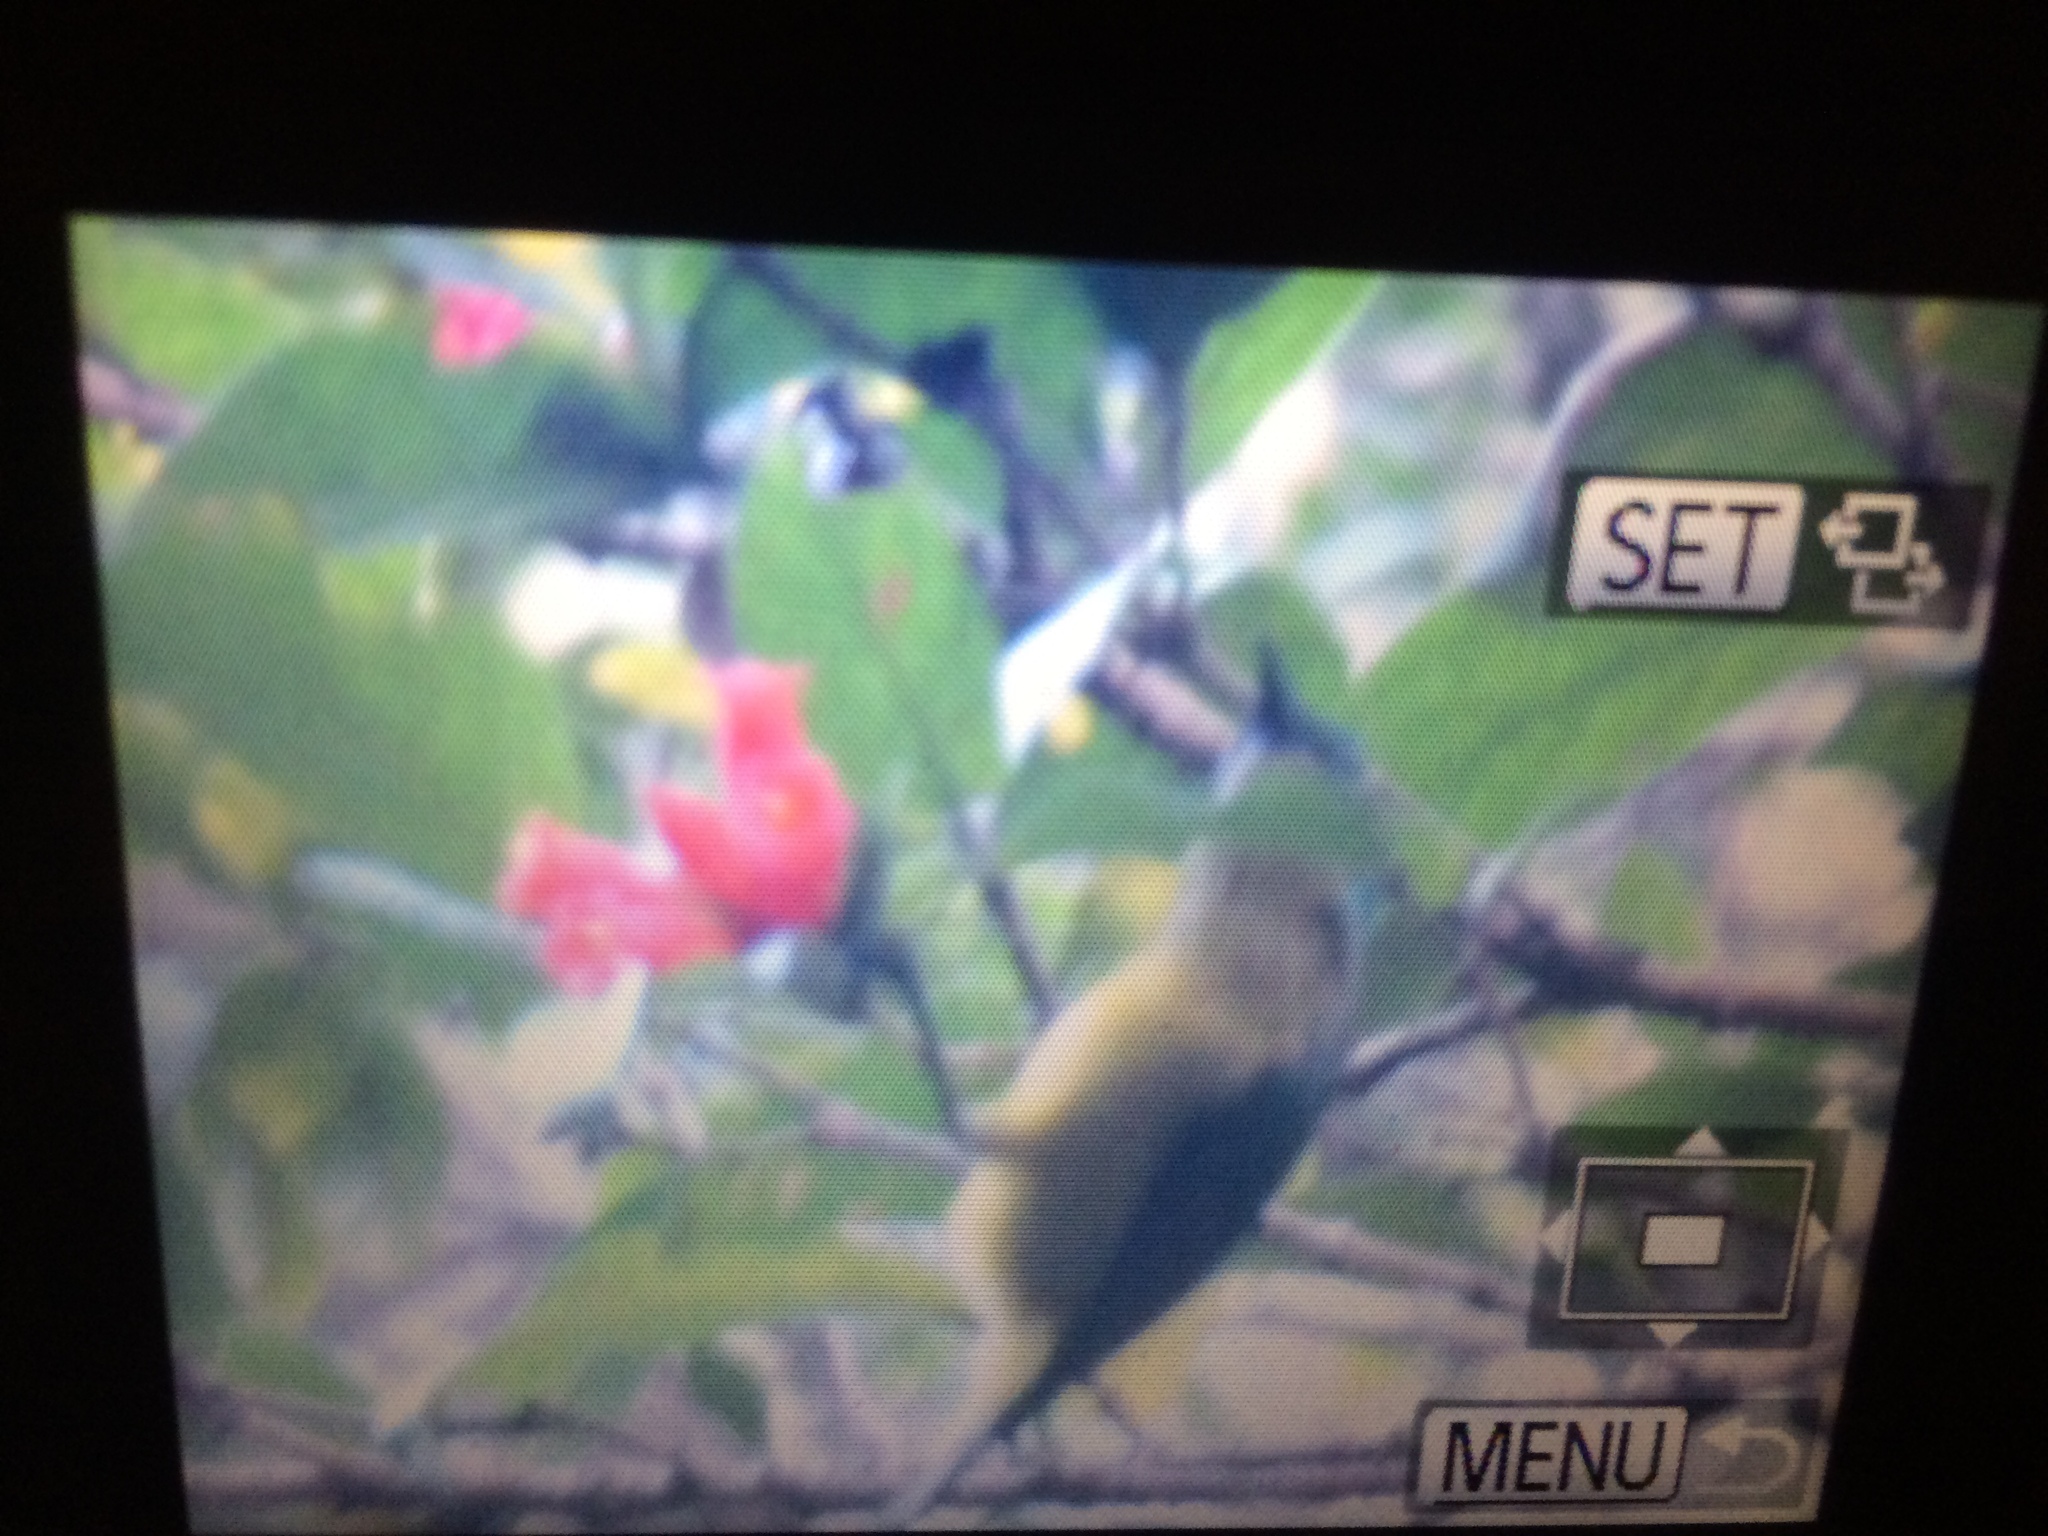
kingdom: Animalia
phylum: Chordata
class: Aves
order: Passeriformes
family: Nectariniidae
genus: Hedydipna
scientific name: Hedydipna collaris
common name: Collared sunbird
